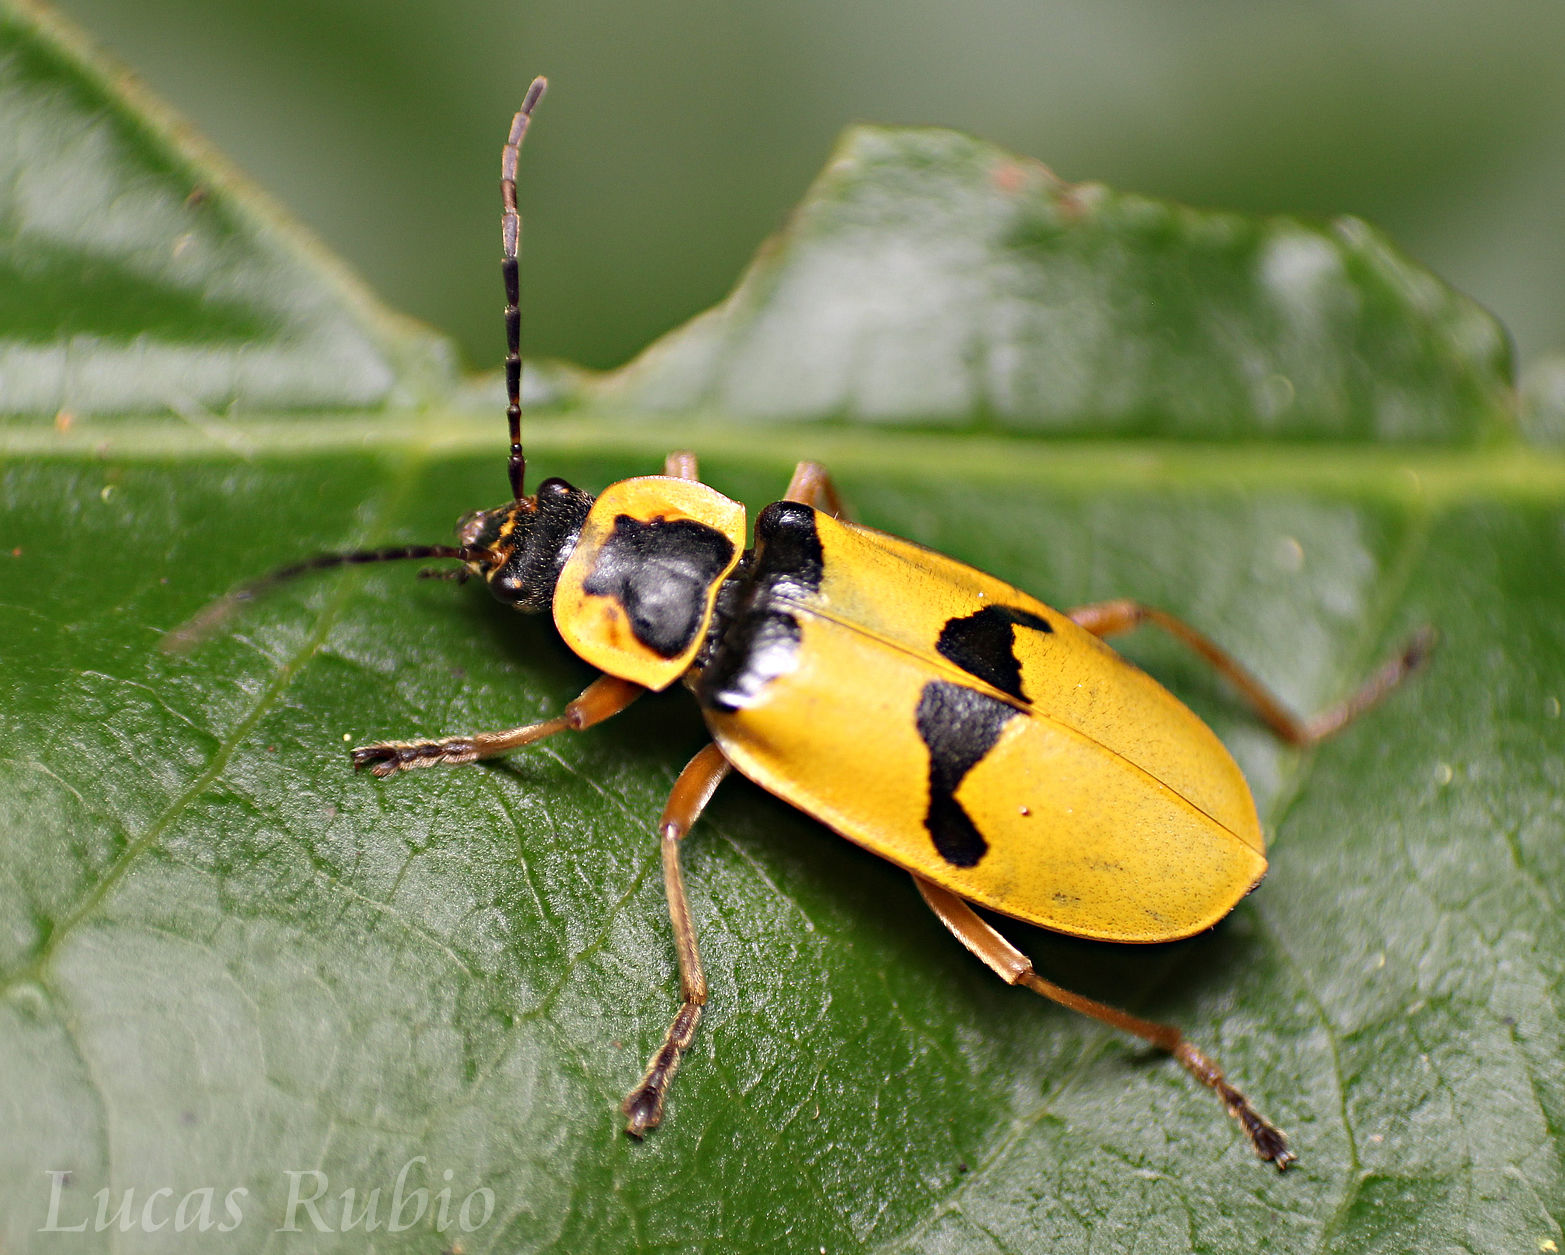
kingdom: Animalia
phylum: Arthropoda
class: Insecta
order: Coleoptera
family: Cantharidae
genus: Chauliognathus
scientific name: Chauliognathus
